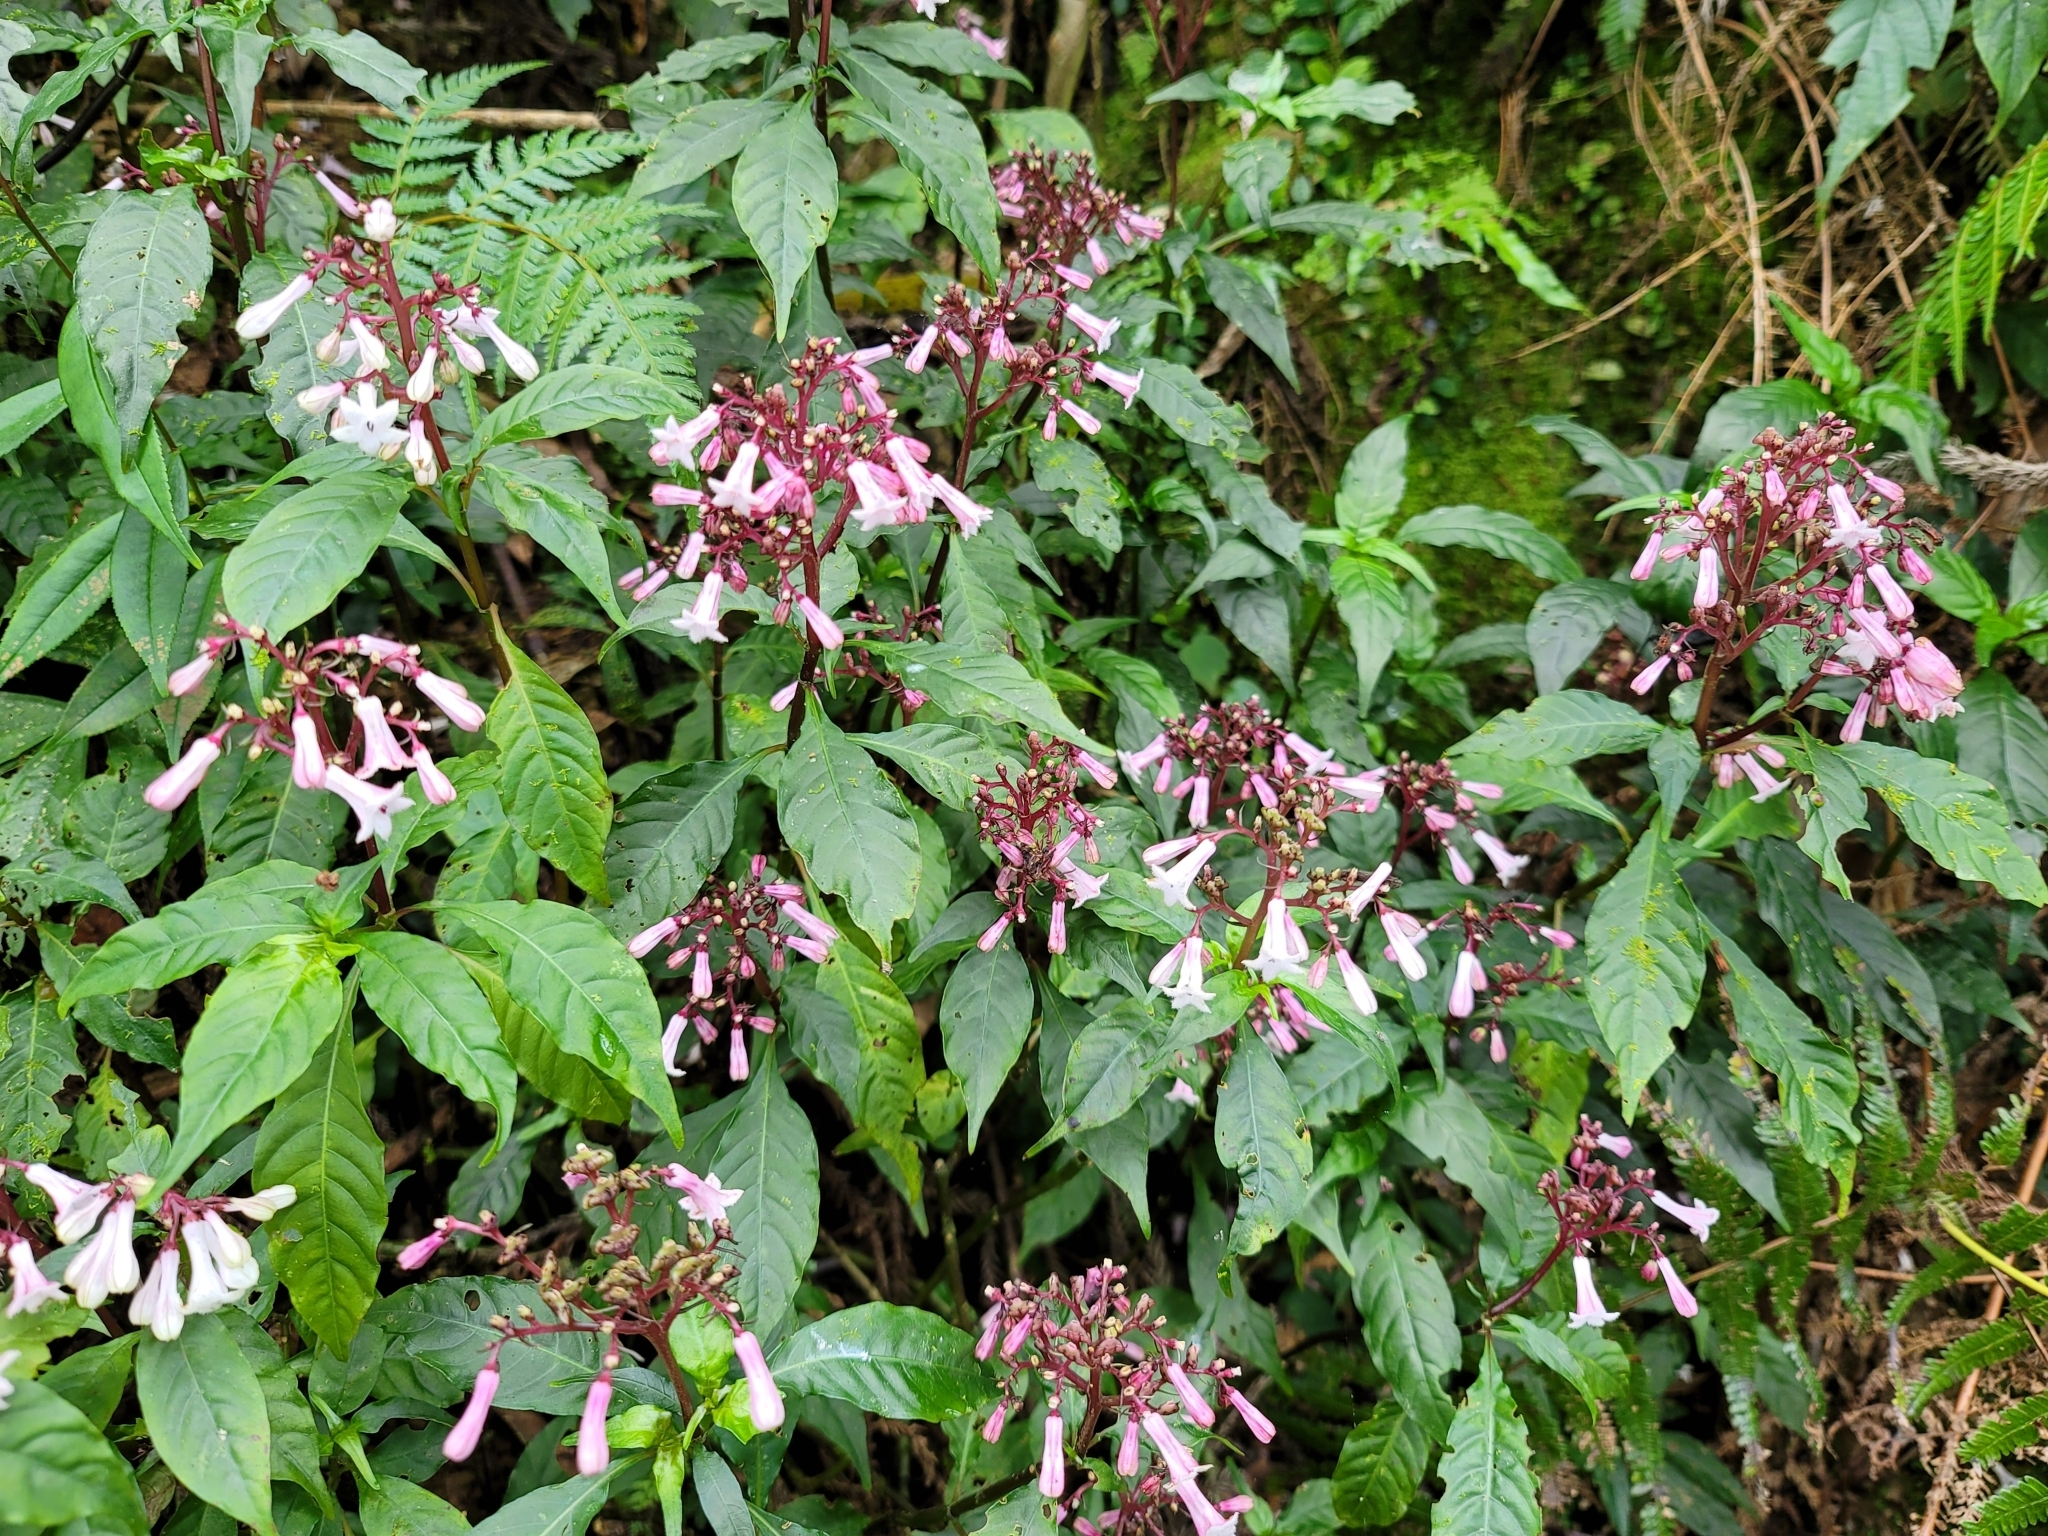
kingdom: Plantae
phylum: Tracheophyta
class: Magnoliopsida
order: Gentianales
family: Rubiaceae
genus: Ophiorrhiza
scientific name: Ophiorrhiza japonica
